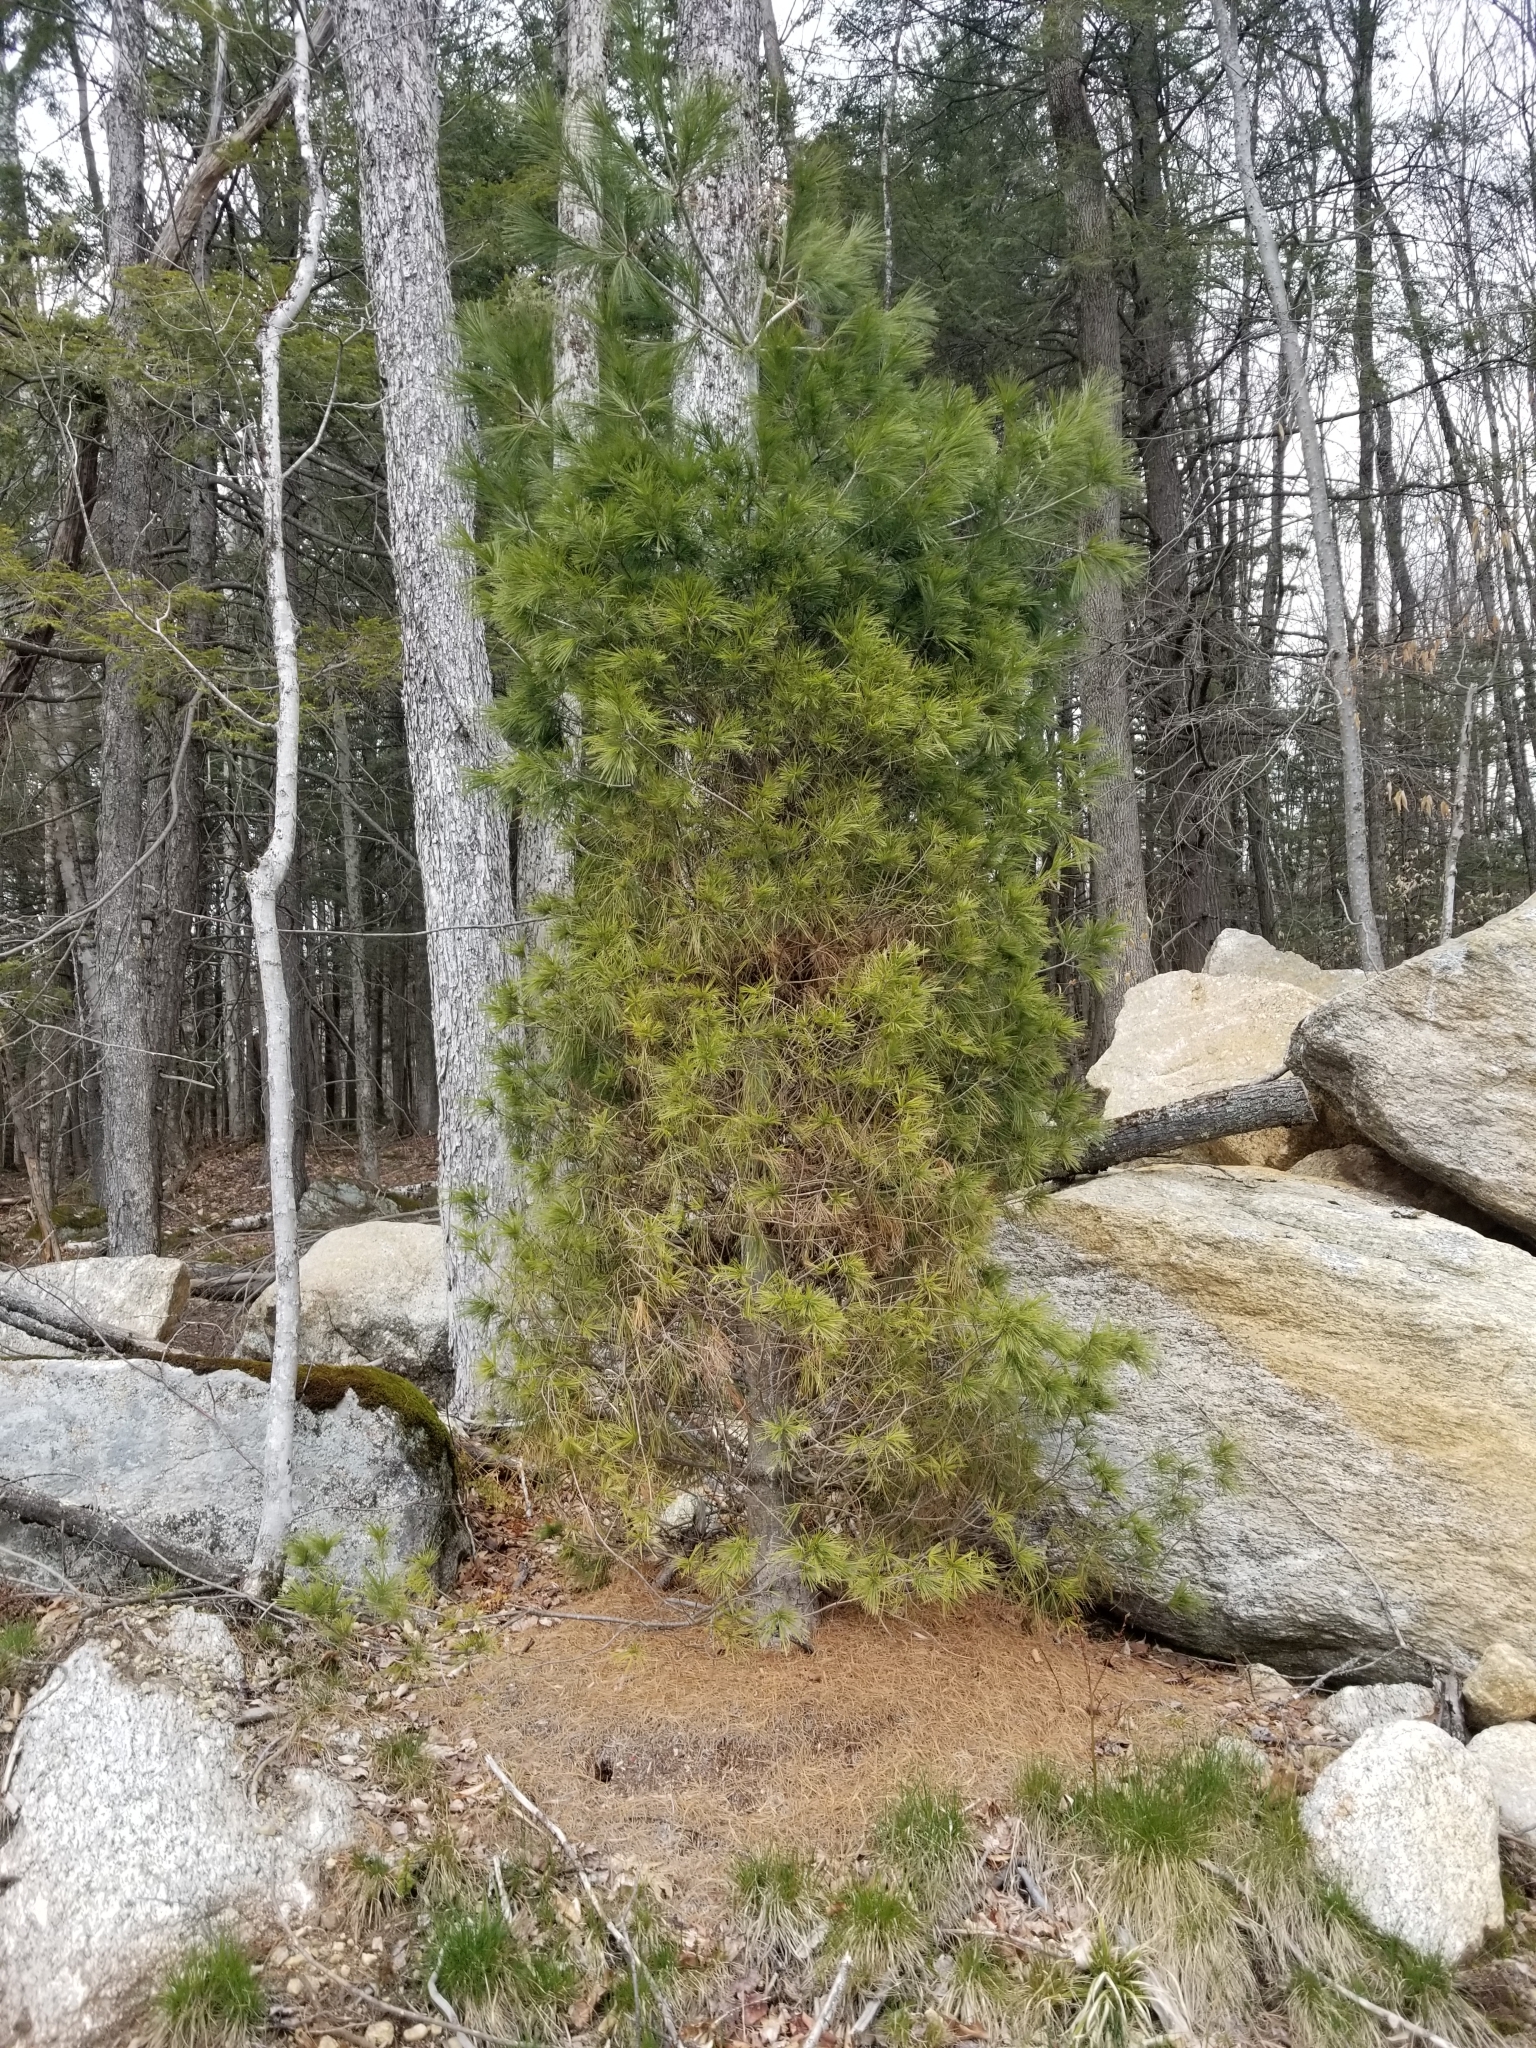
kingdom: Plantae
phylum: Tracheophyta
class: Pinopsida
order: Pinales
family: Pinaceae
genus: Pinus
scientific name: Pinus strobus
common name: Weymouth pine
